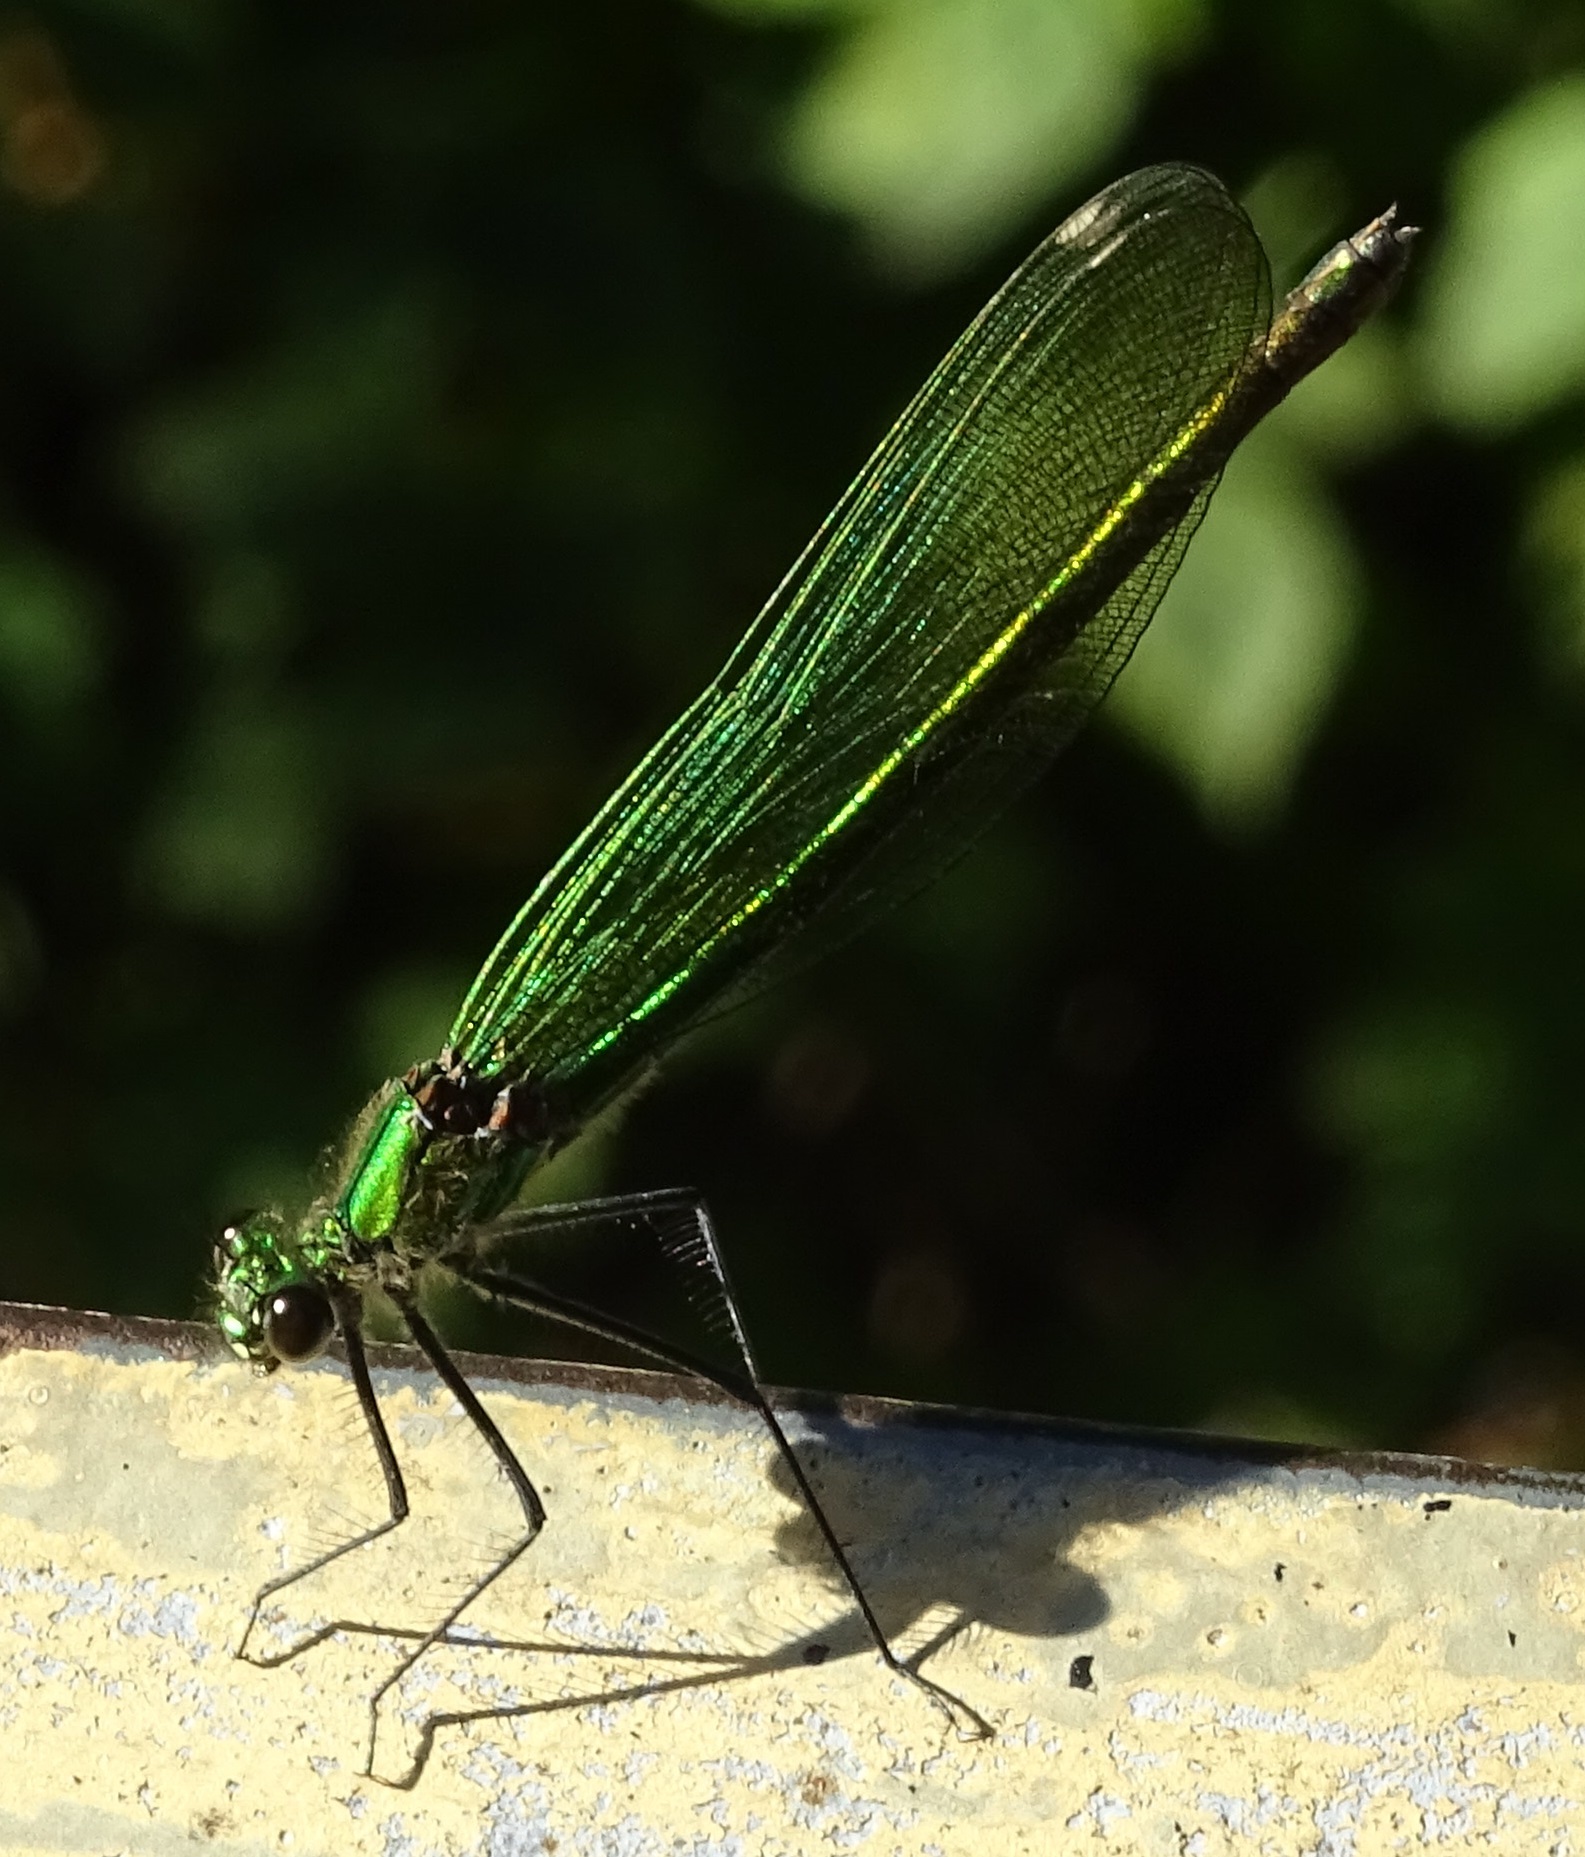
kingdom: Animalia
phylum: Arthropoda
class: Insecta
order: Odonata
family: Calopterygidae
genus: Calopteryx
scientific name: Calopteryx splendens
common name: Banded demoiselle
